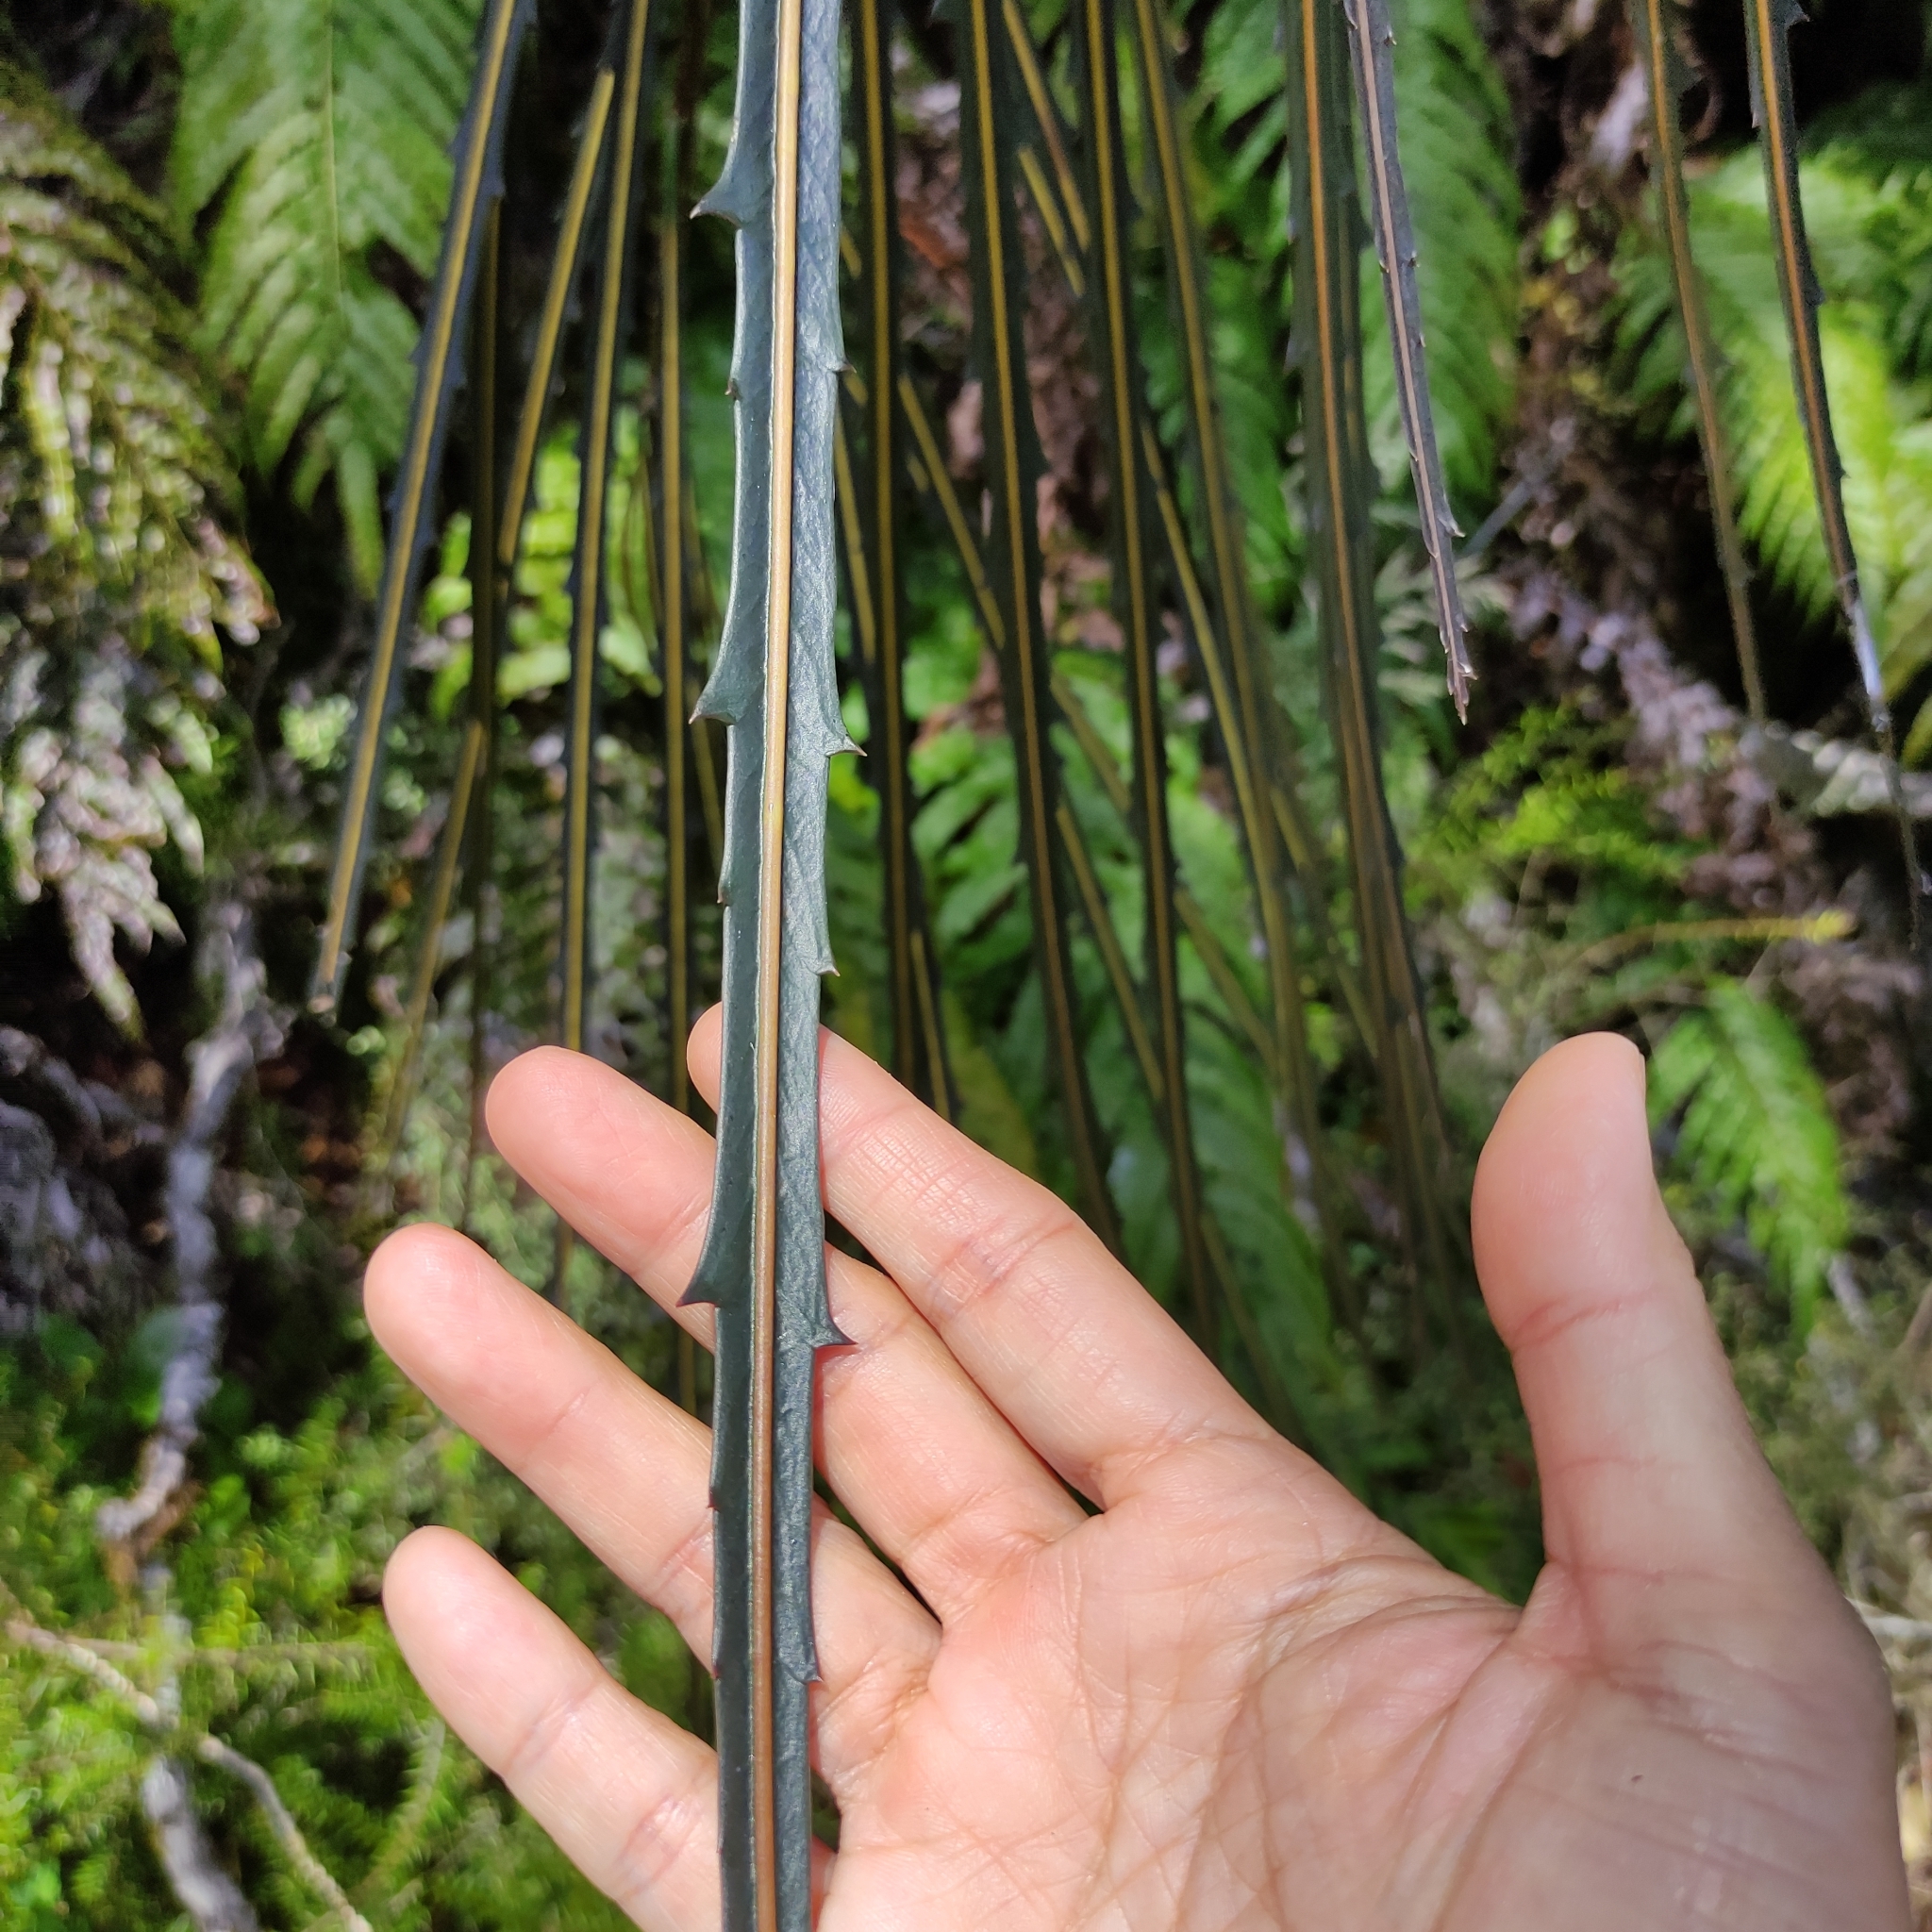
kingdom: Plantae
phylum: Tracheophyta
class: Magnoliopsida
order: Apiales
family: Araliaceae
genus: Pseudopanax
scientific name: Pseudopanax crassifolius
